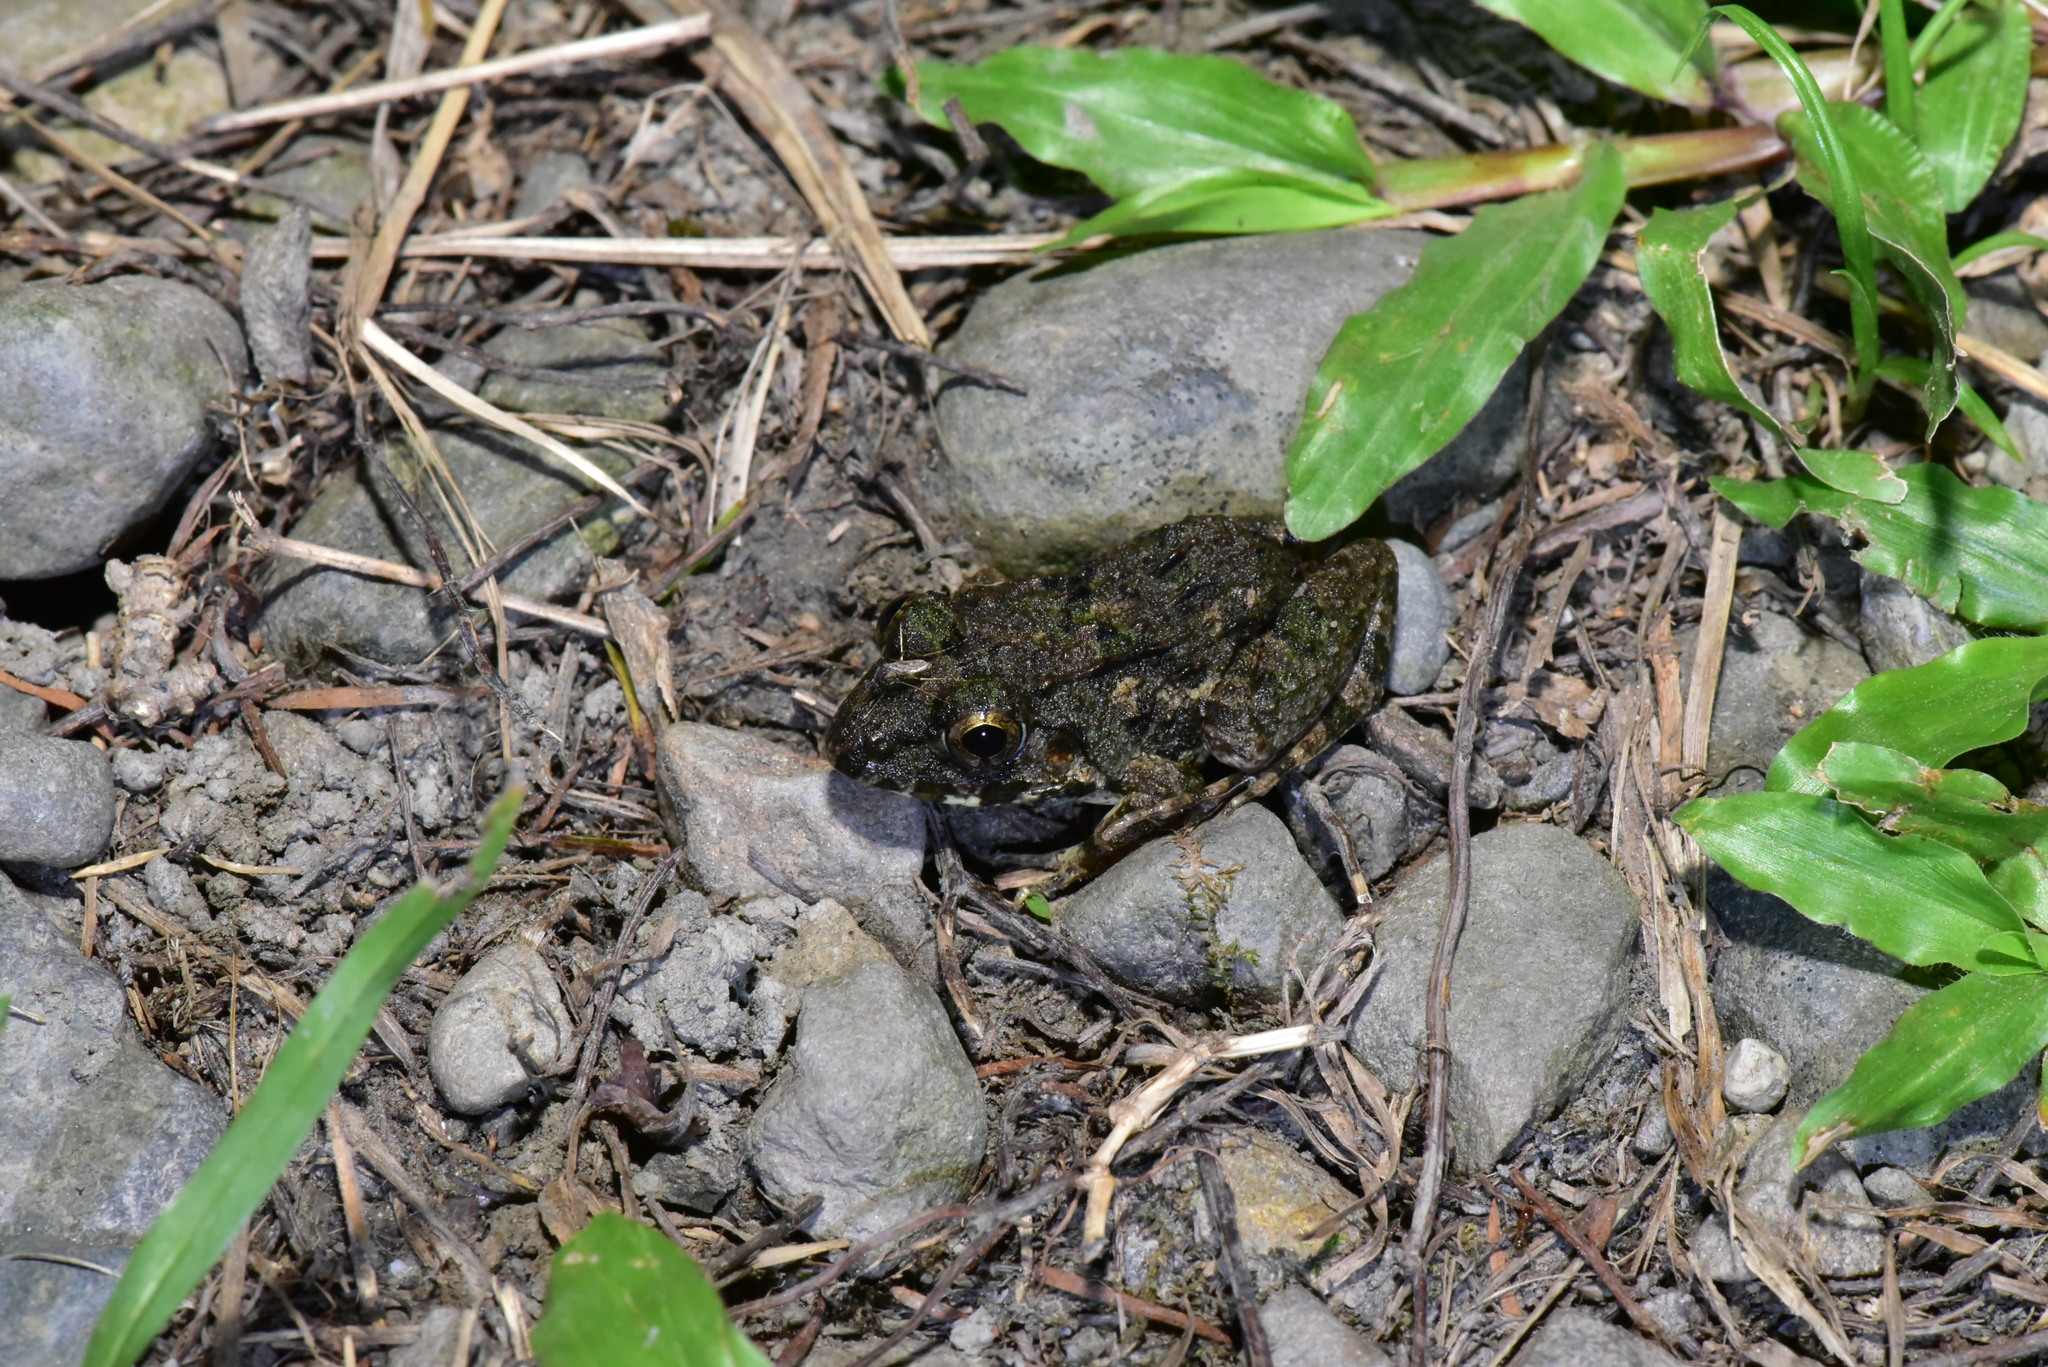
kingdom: Animalia
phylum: Chordata
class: Amphibia
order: Anura
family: Dicroglossidae
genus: Fejervarya
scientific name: Fejervarya limnocharis
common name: Asian grass frog/common pond frog/field frog/grass frog/indian rice frog
